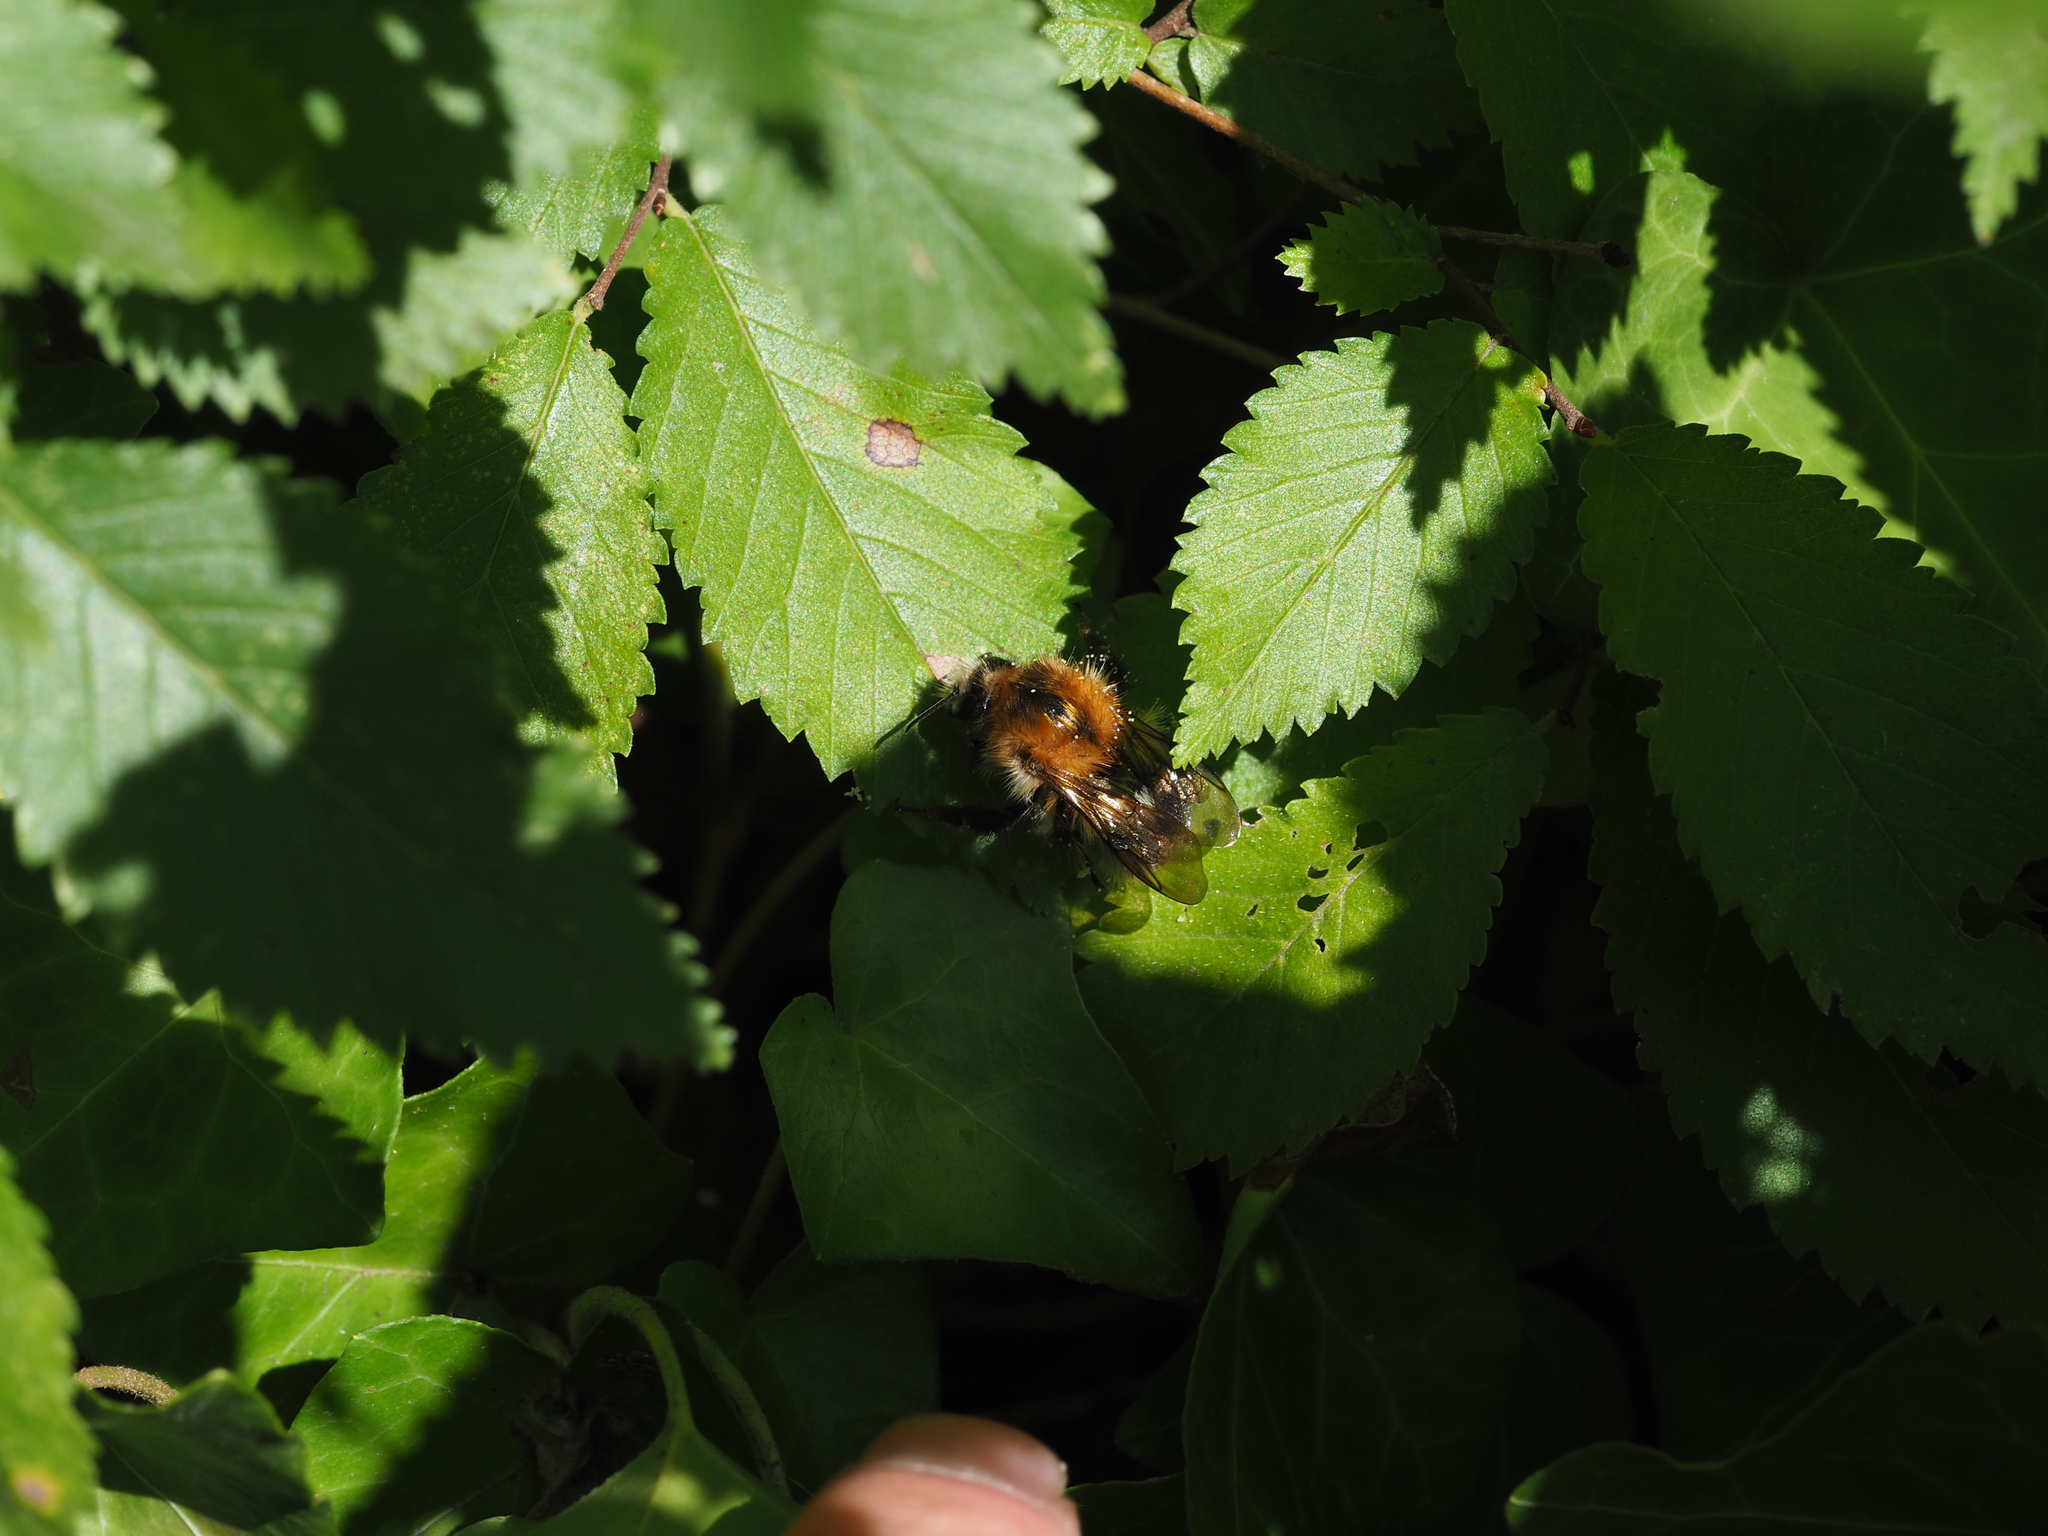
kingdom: Animalia
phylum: Arthropoda
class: Insecta
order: Hymenoptera
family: Apidae
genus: Bombus
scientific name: Bombus pascuorum
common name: Common carder bee
